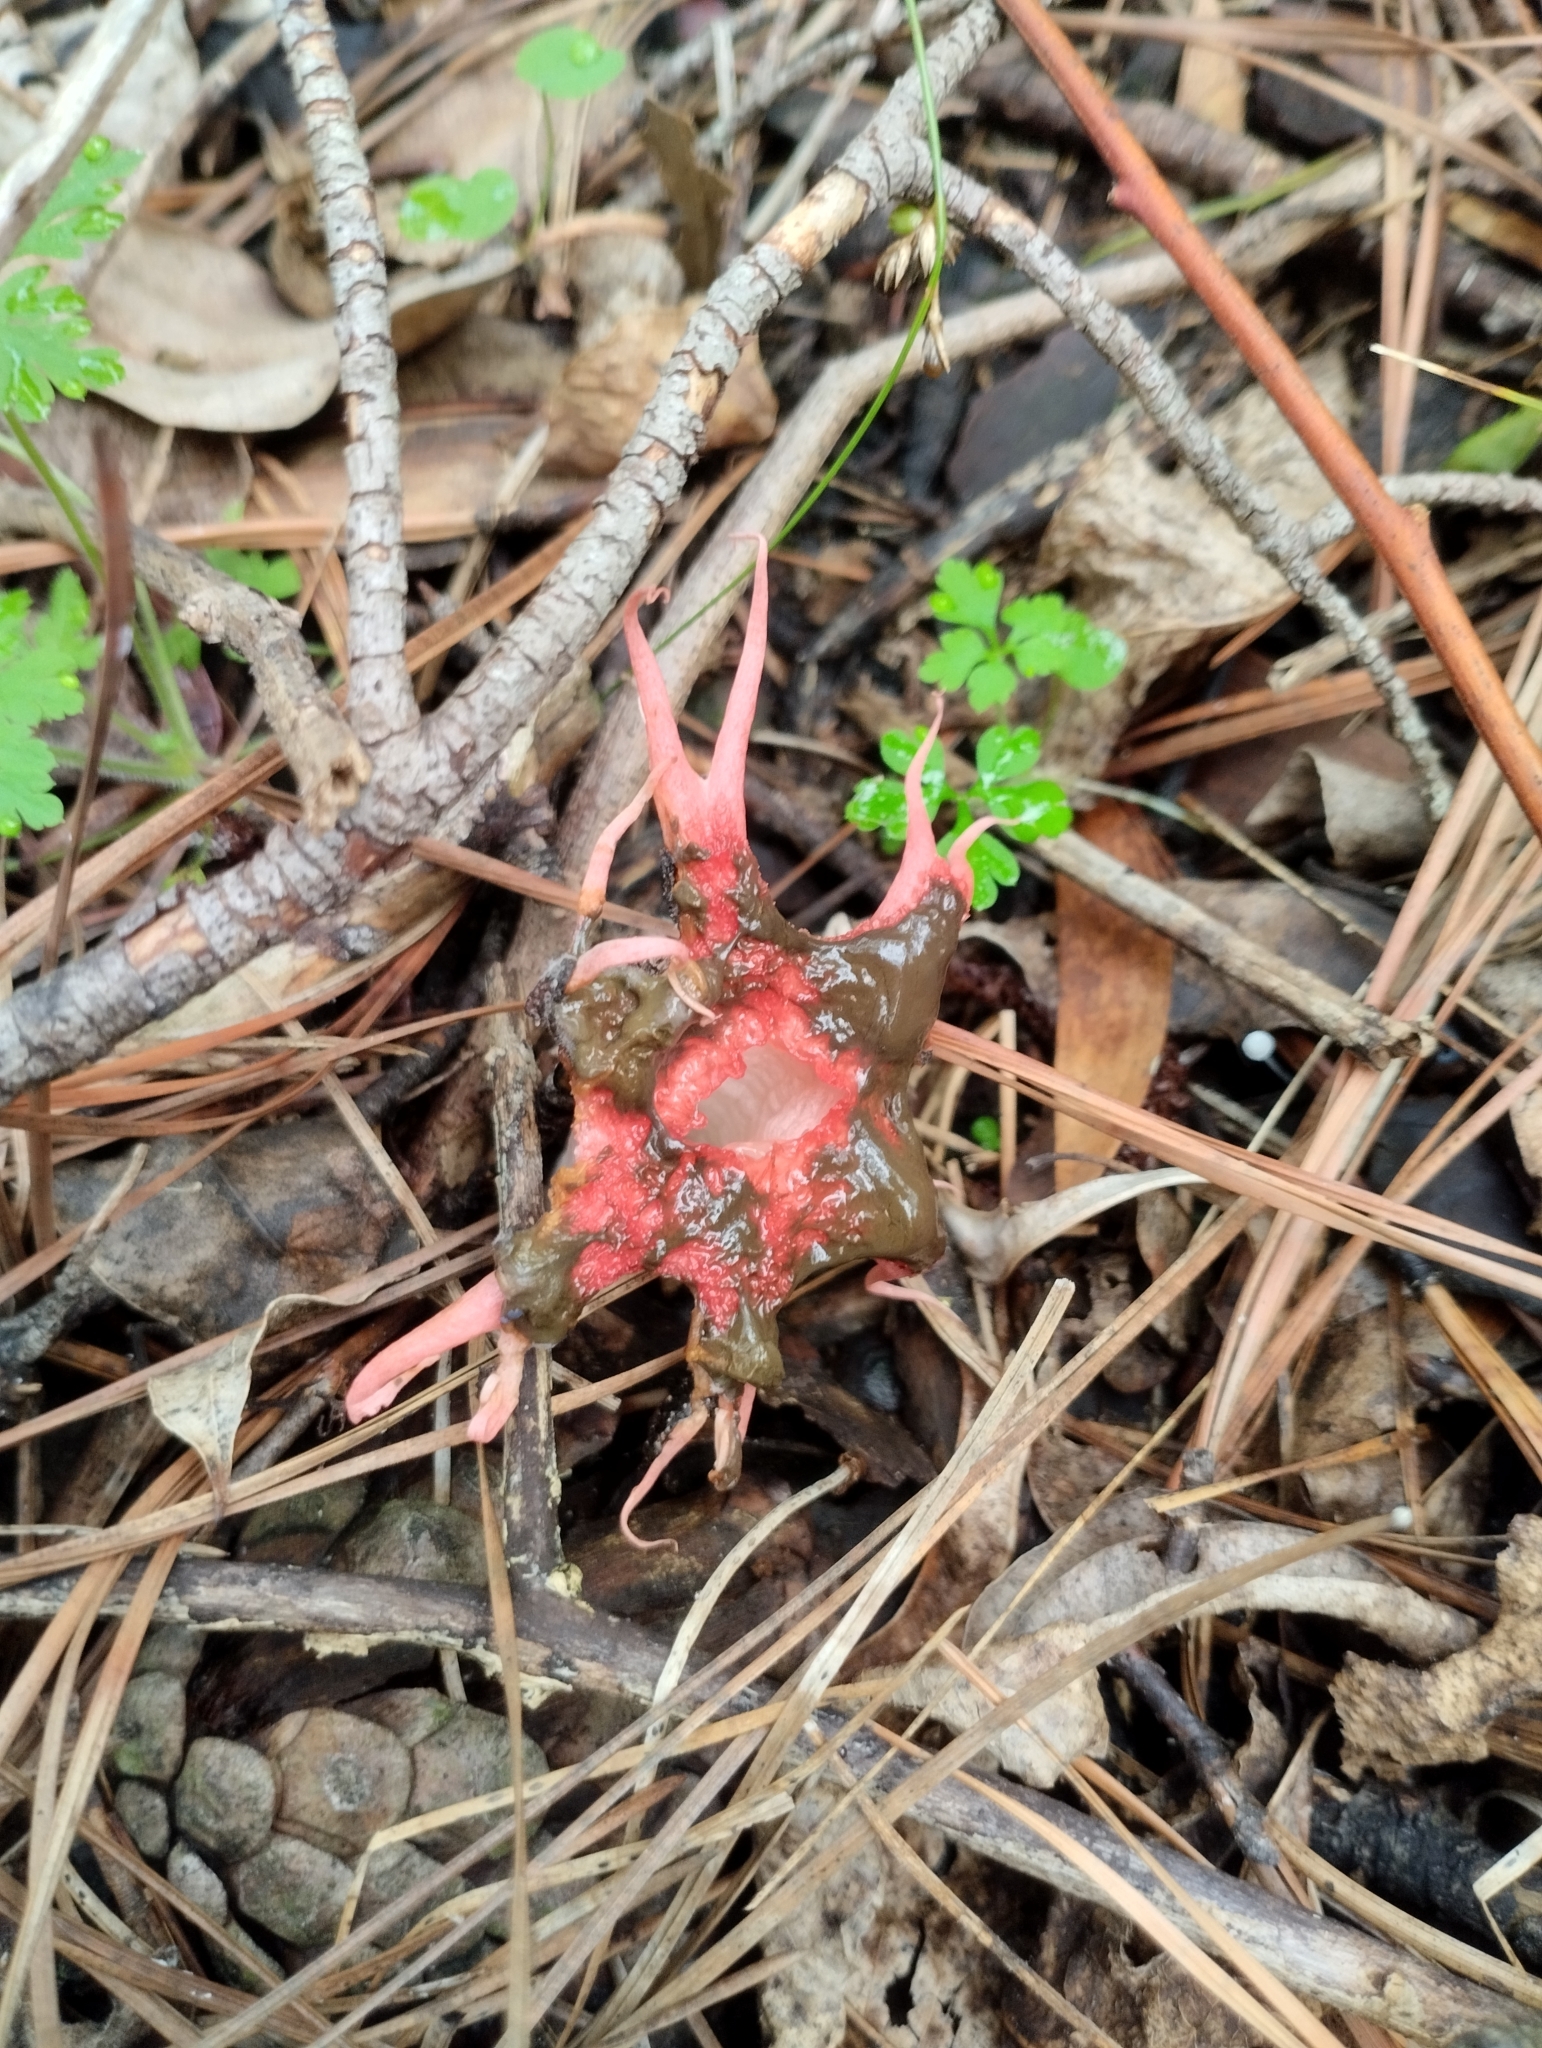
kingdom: Fungi
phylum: Basidiomycota
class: Agaricomycetes
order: Phallales
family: Phallaceae
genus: Aseroe
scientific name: Aseroe rubra
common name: Starfish fungus
